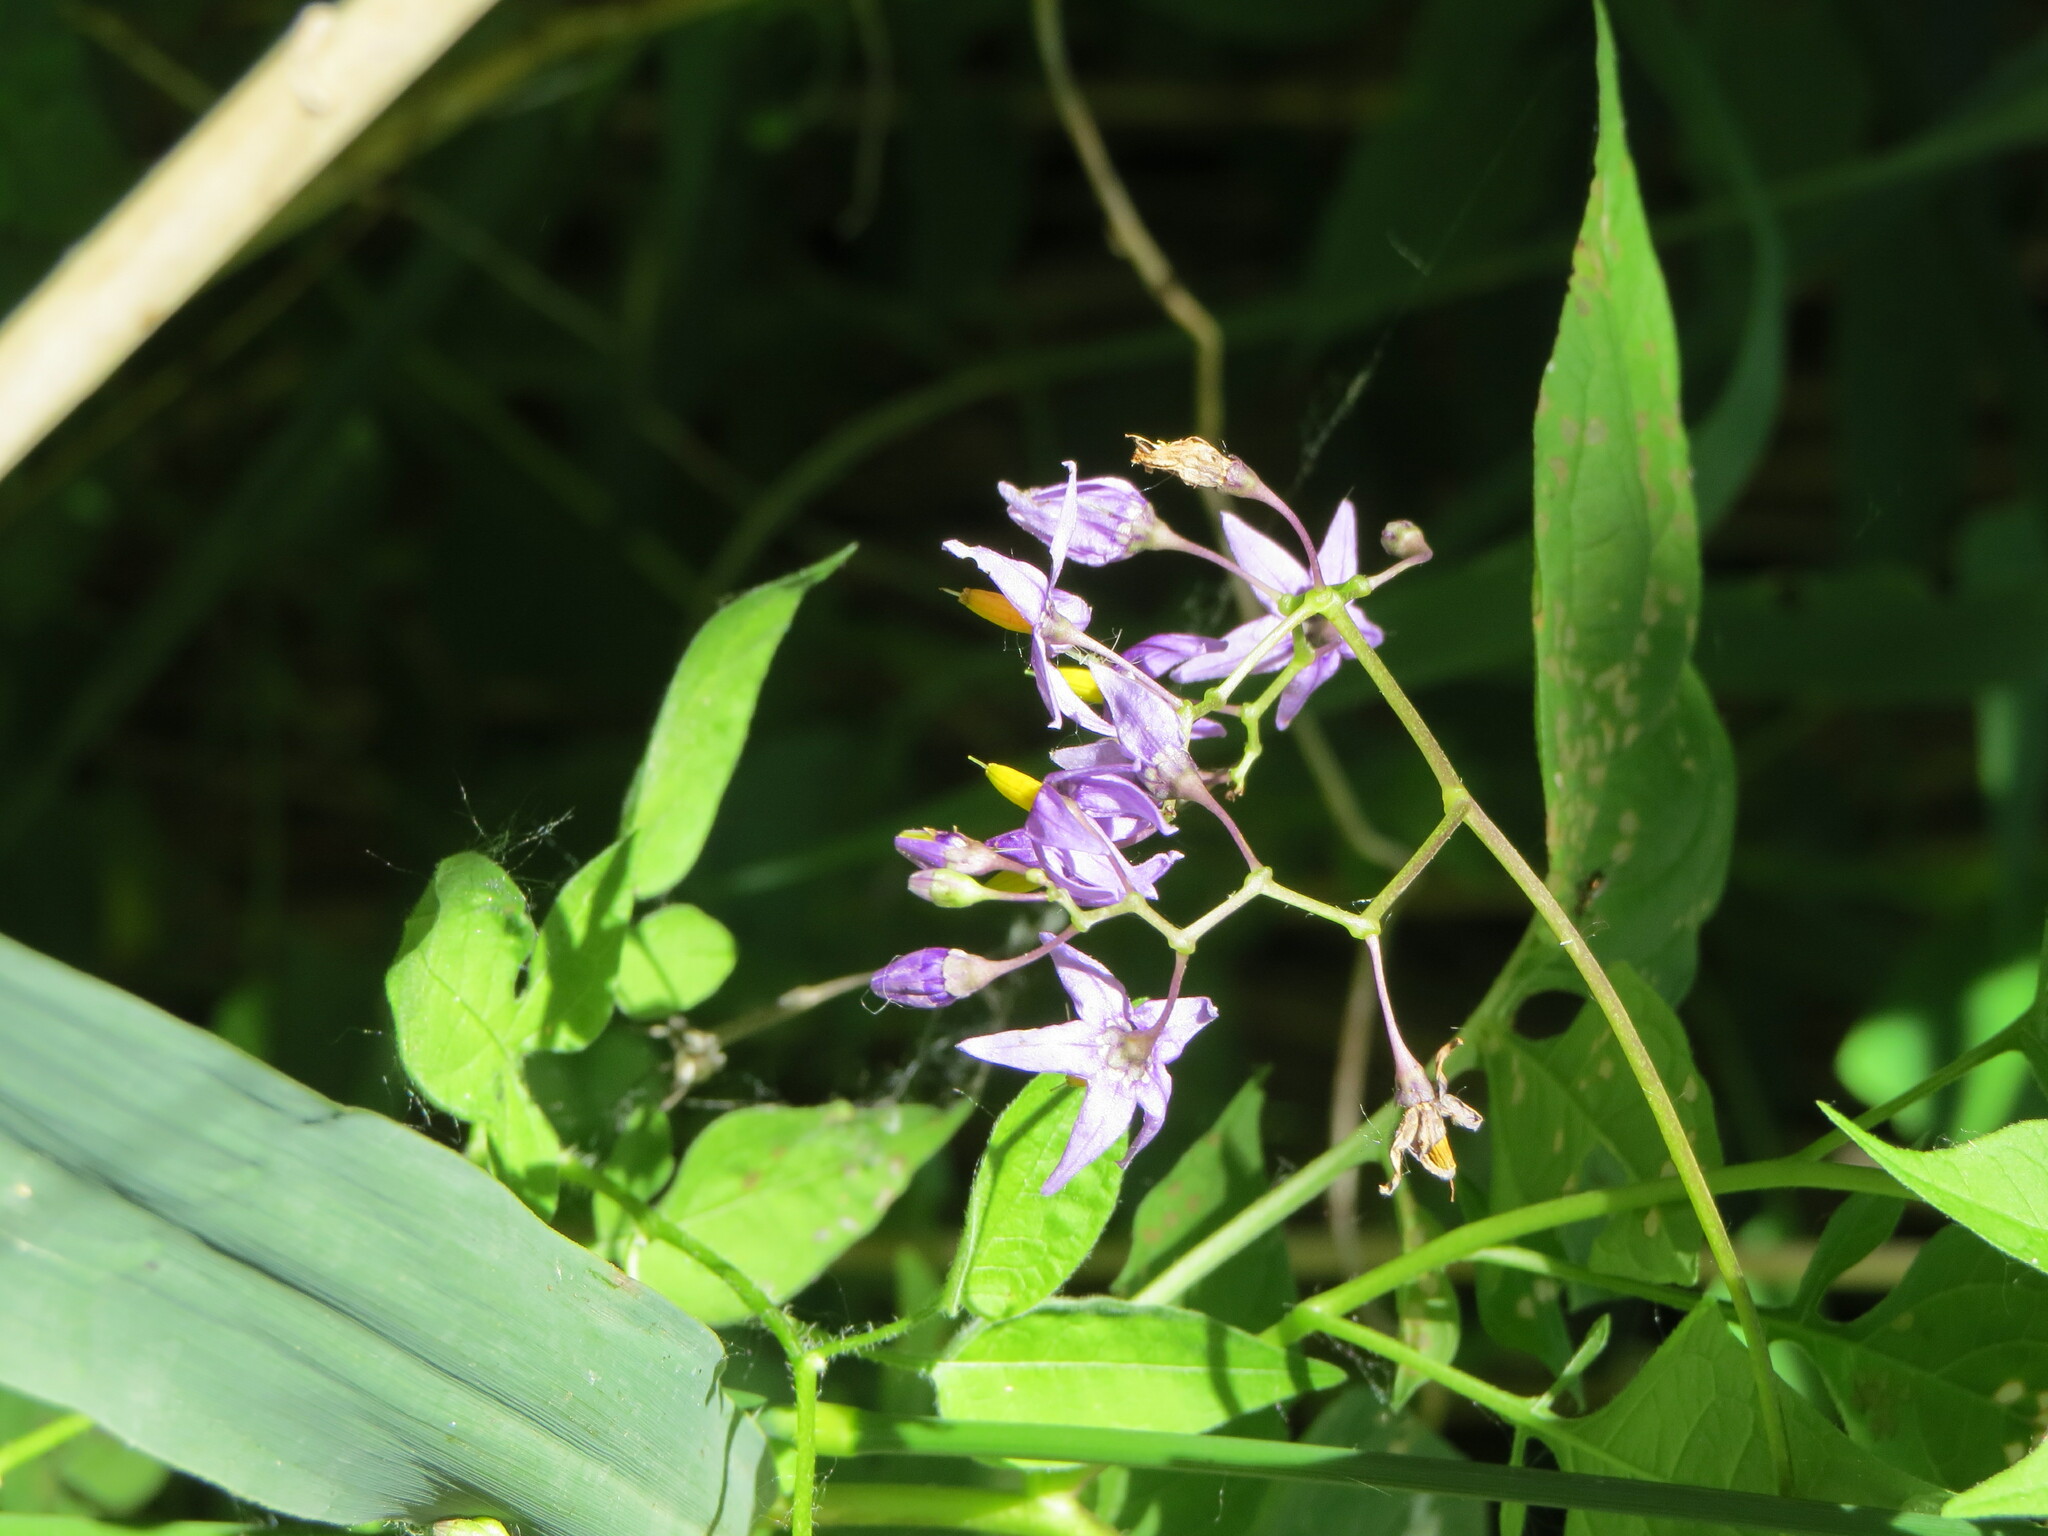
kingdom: Plantae
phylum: Tracheophyta
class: Magnoliopsida
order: Solanales
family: Solanaceae
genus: Solanum
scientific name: Solanum dulcamara
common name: Climbing nightshade
